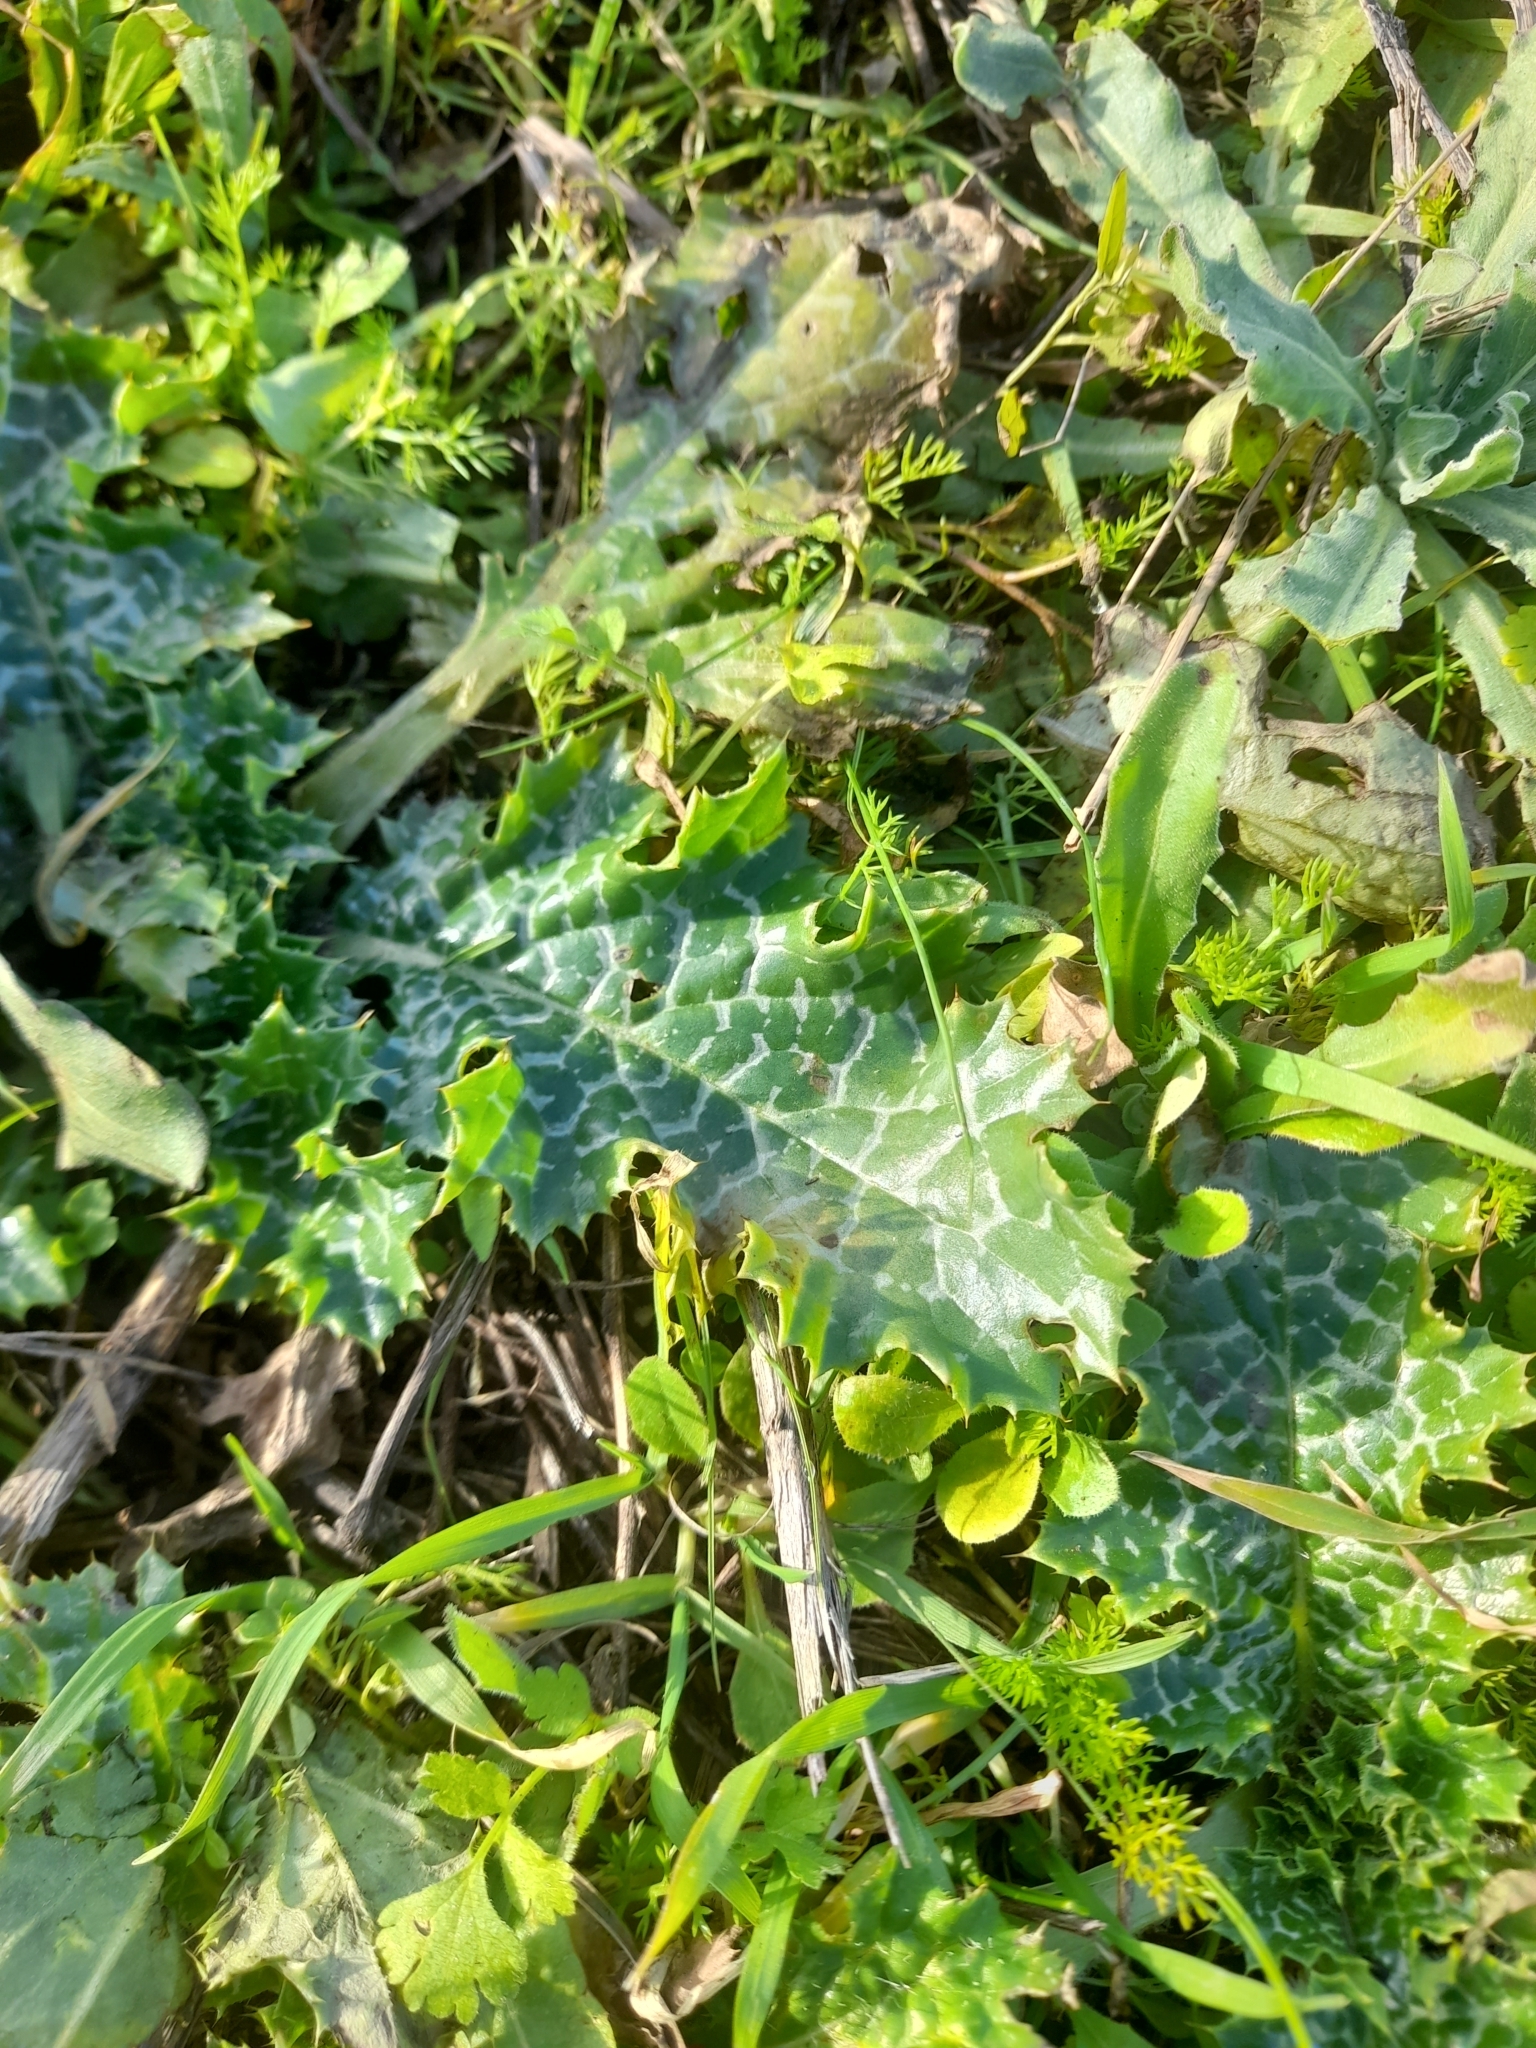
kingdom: Plantae
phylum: Tracheophyta
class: Magnoliopsida
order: Asterales
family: Asteraceae
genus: Silybum
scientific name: Silybum marianum
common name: Milk thistle
